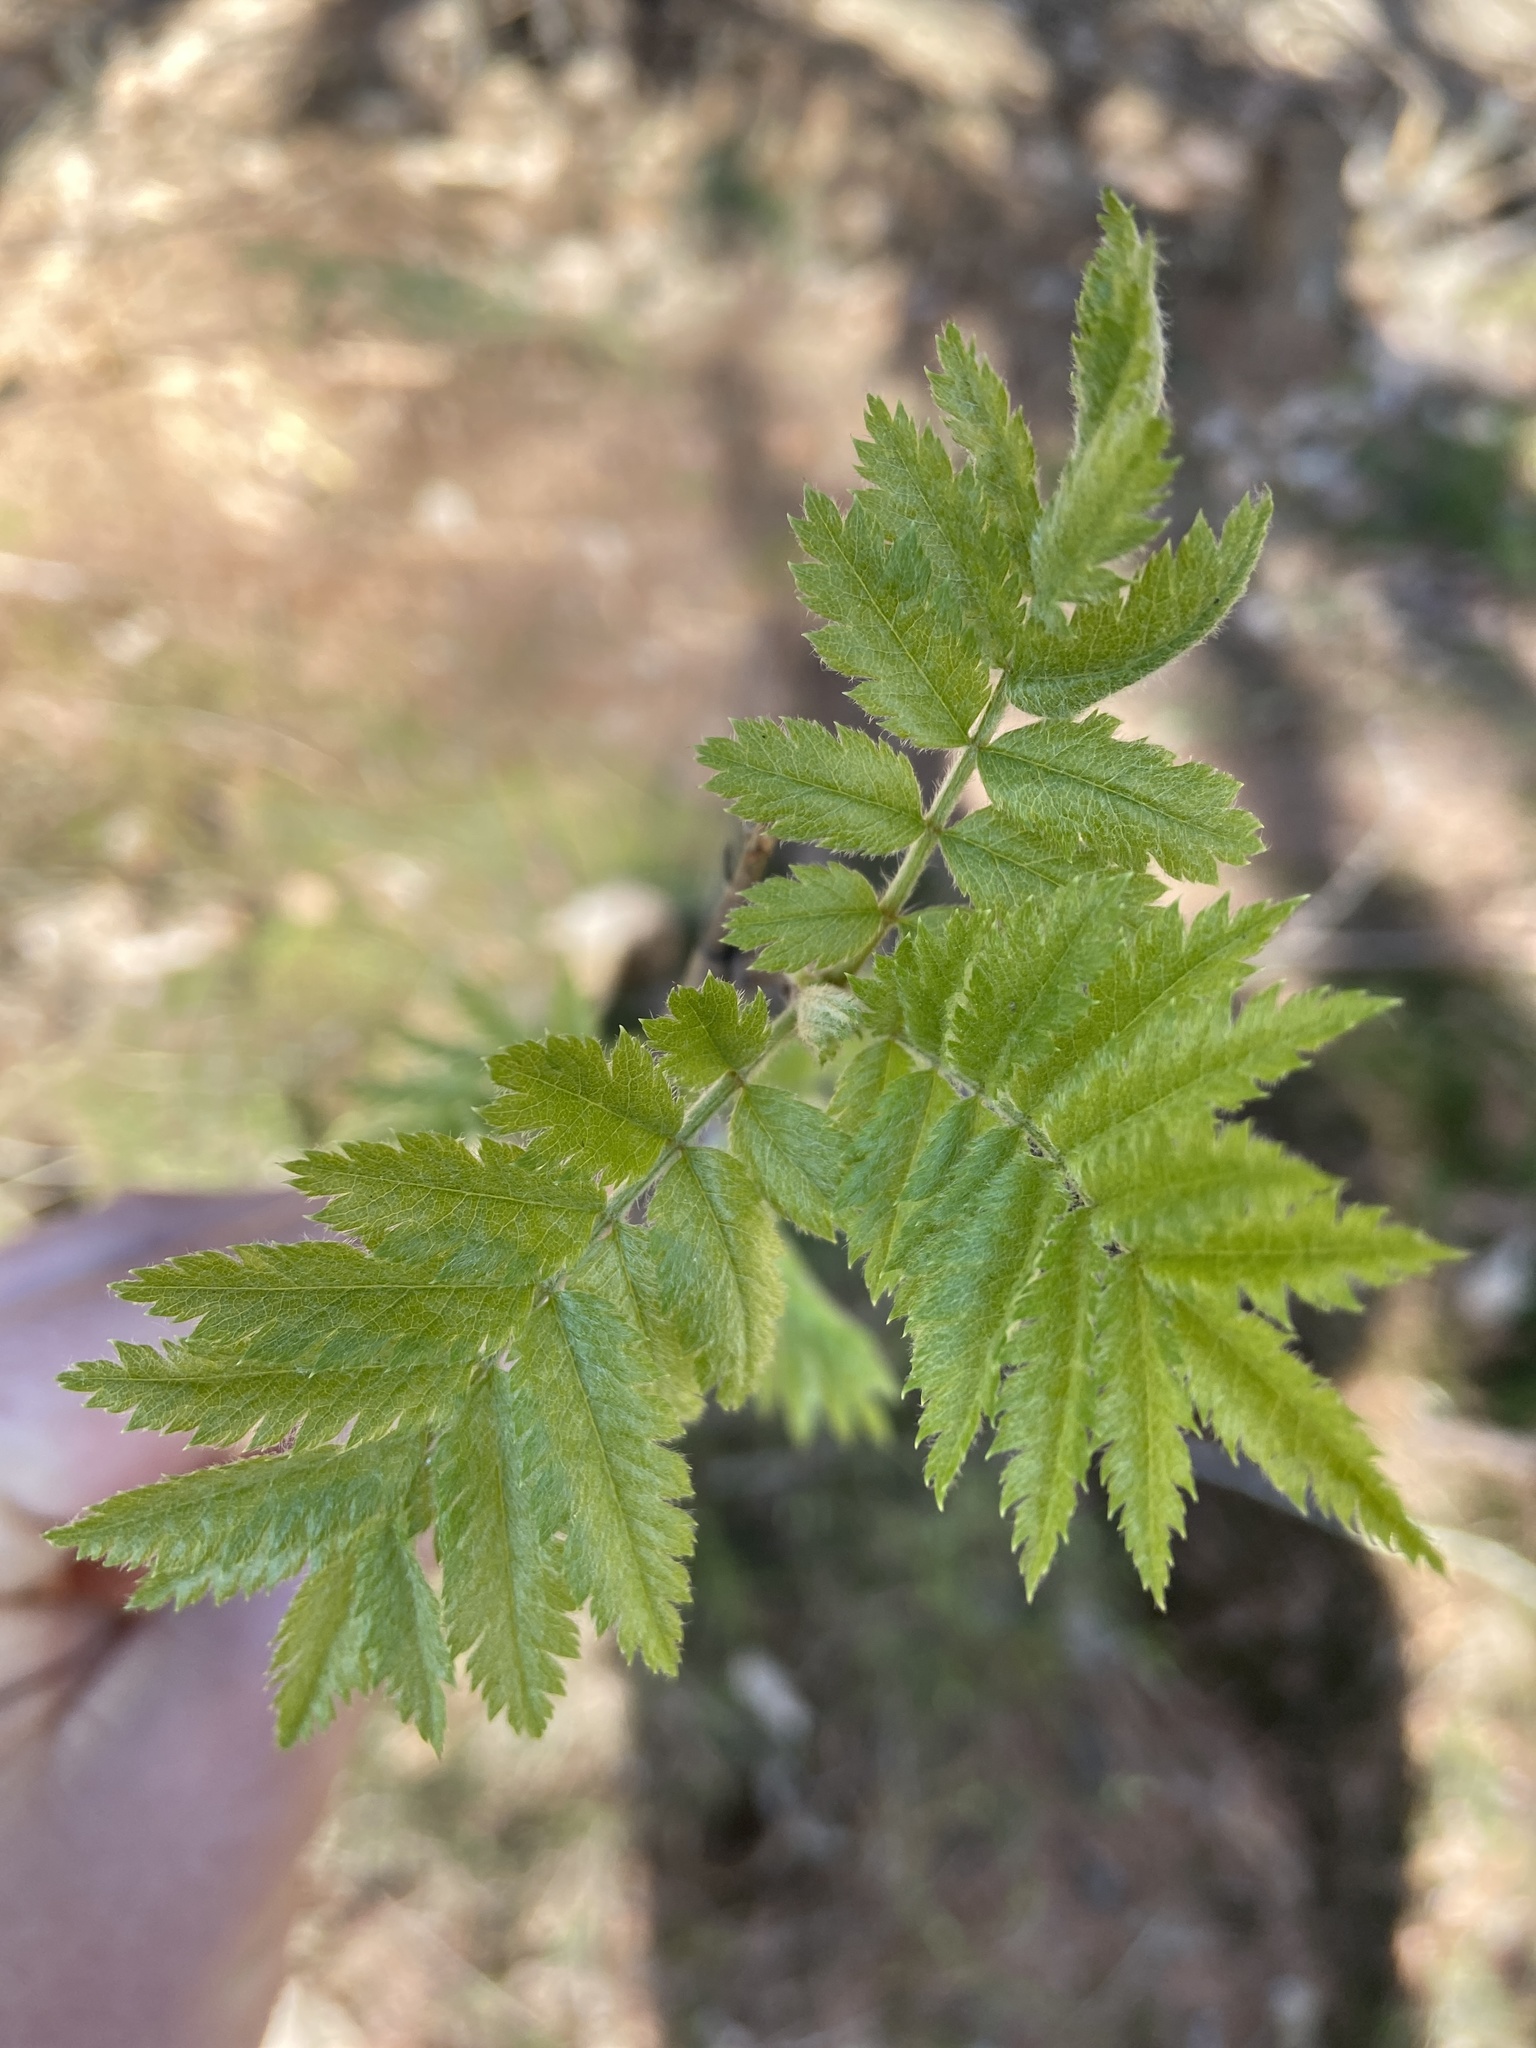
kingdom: Plantae
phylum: Tracheophyta
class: Magnoliopsida
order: Rosales
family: Rosaceae
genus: Sorbus
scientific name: Sorbus aucuparia
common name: Rowan
